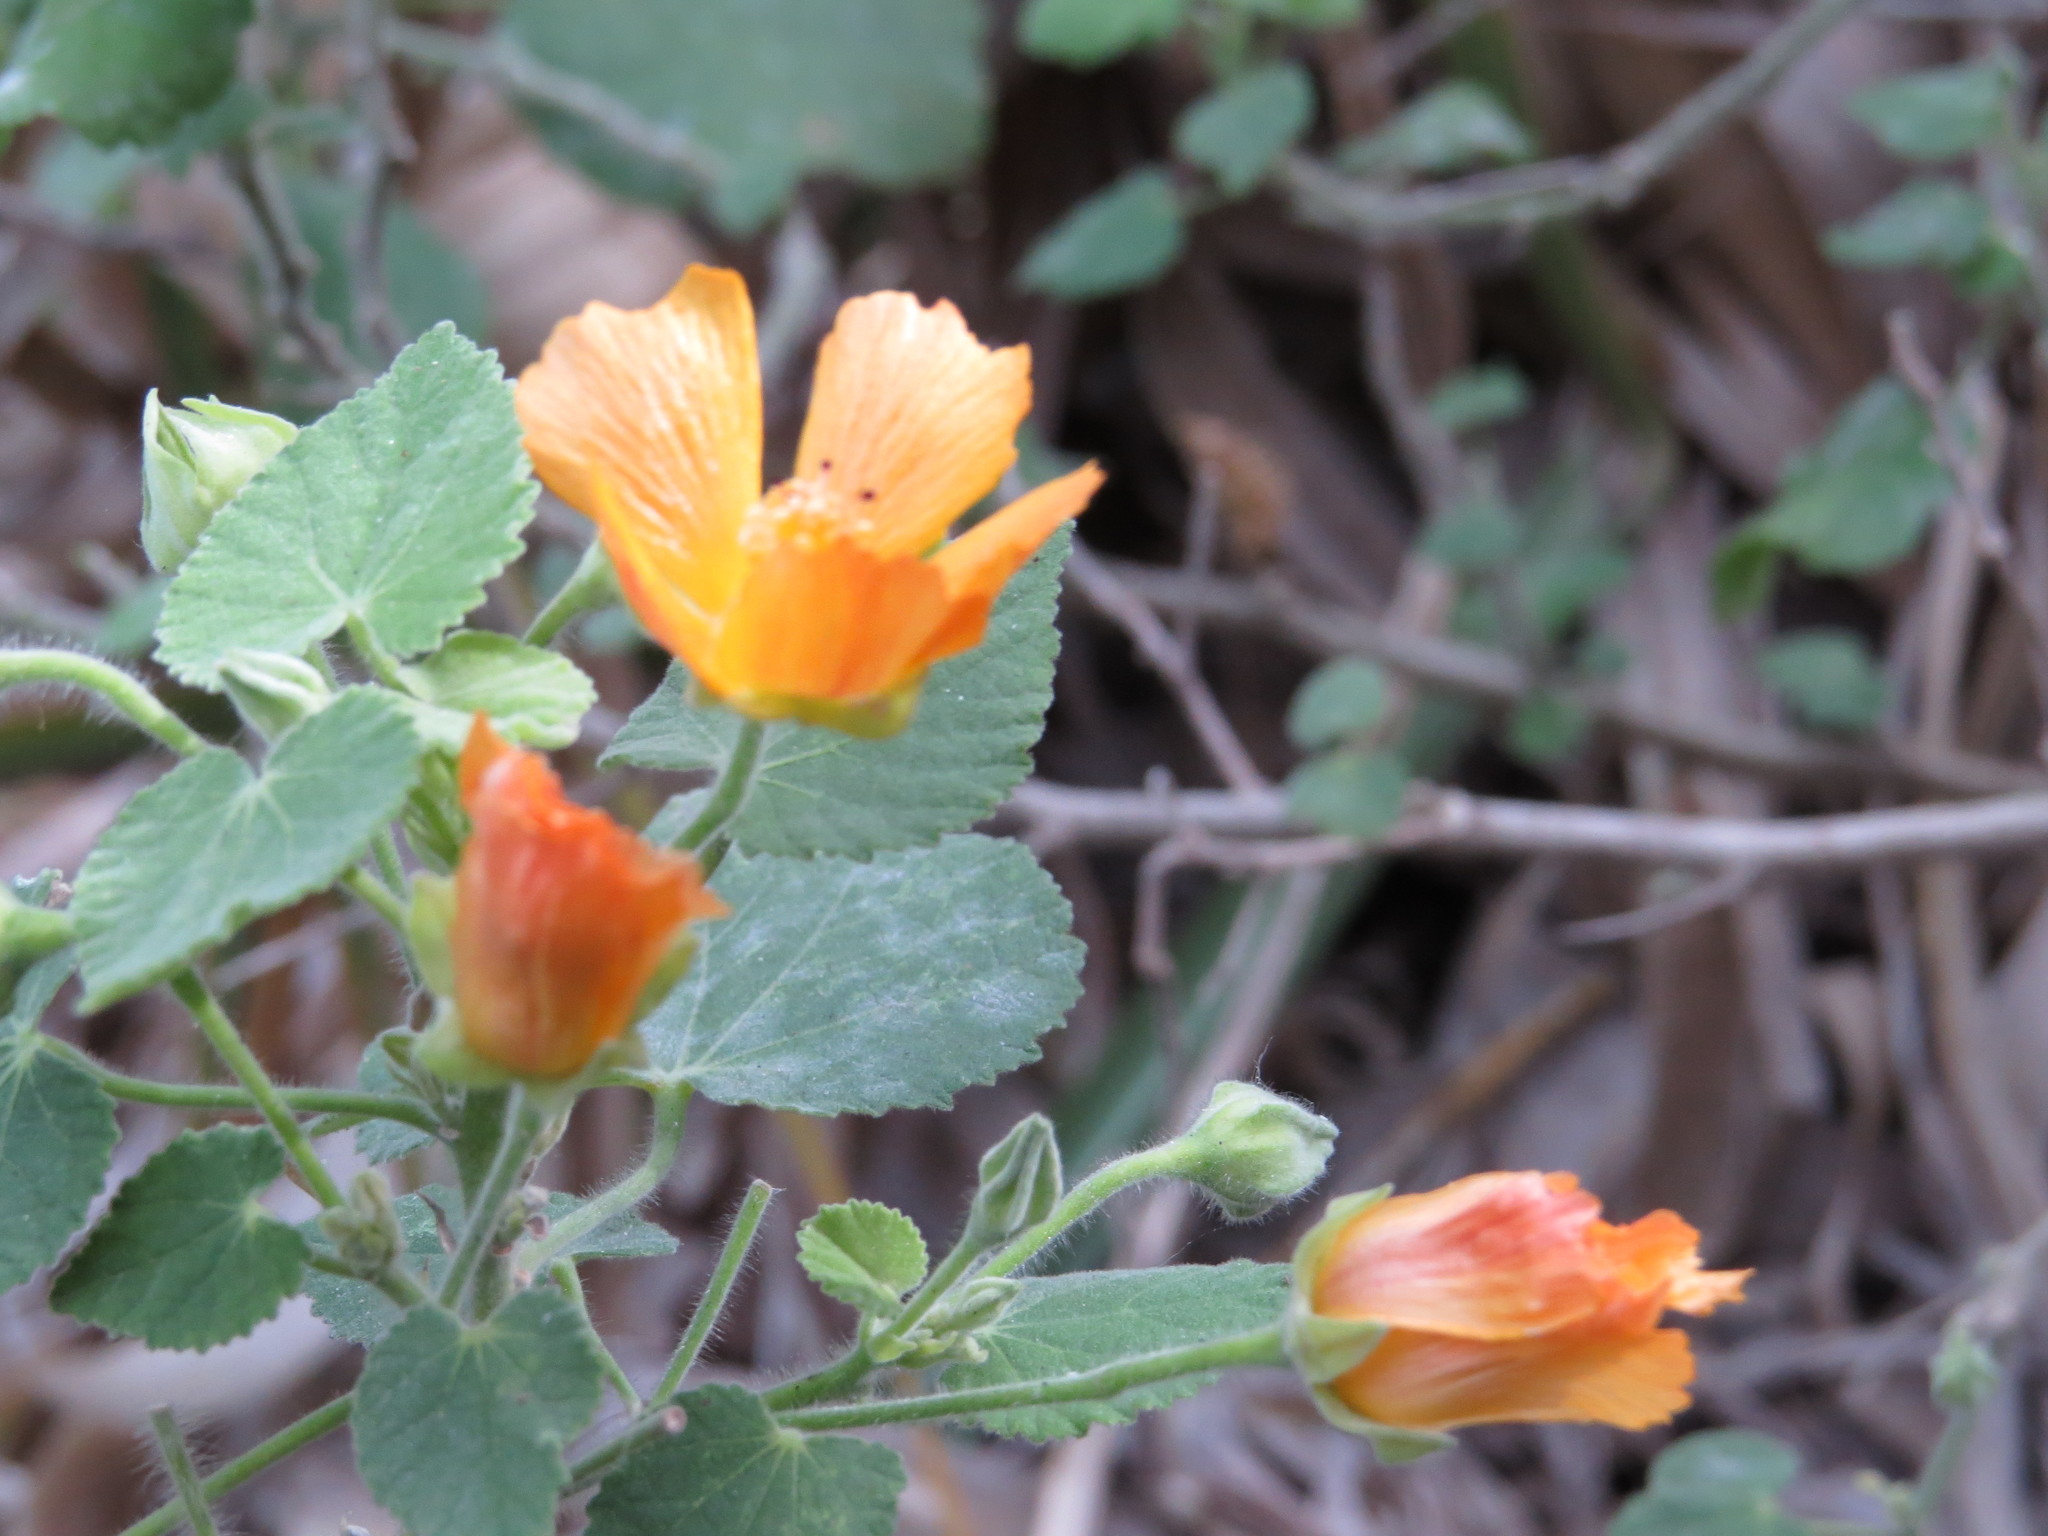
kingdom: Plantae
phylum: Tracheophyta
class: Magnoliopsida
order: Malvales
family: Malvaceae
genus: Abutilon
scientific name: Abutilon grandifolium
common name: Hairy abutilon
